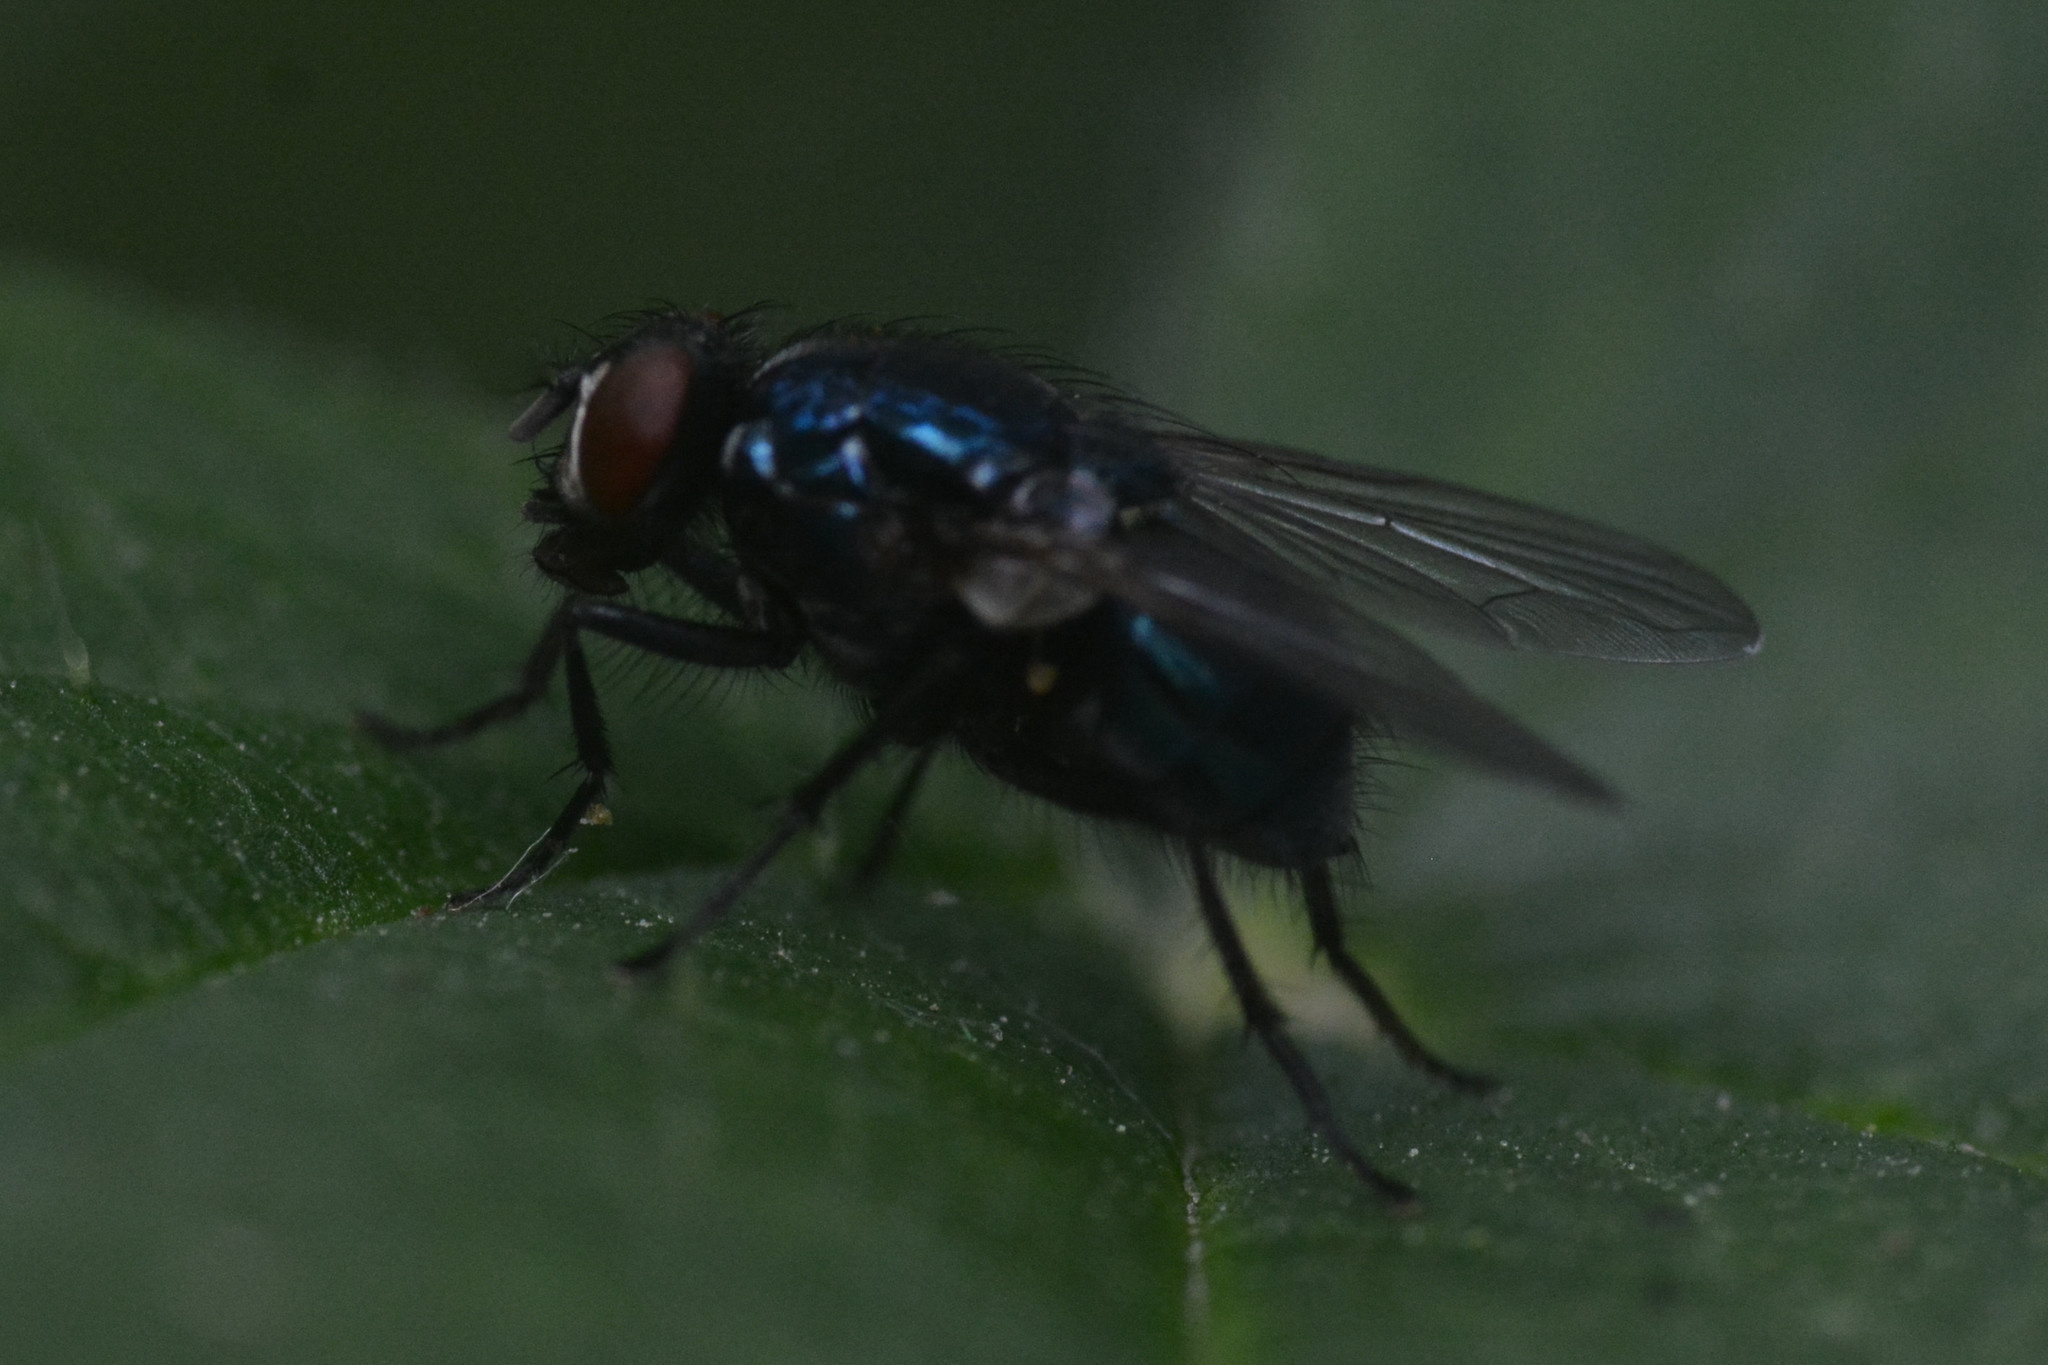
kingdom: Animalia
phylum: Arthropoda
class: Insecta
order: Diptera
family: Muscidae
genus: Eudasyphora
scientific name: Eudasyphora cyanicolor
